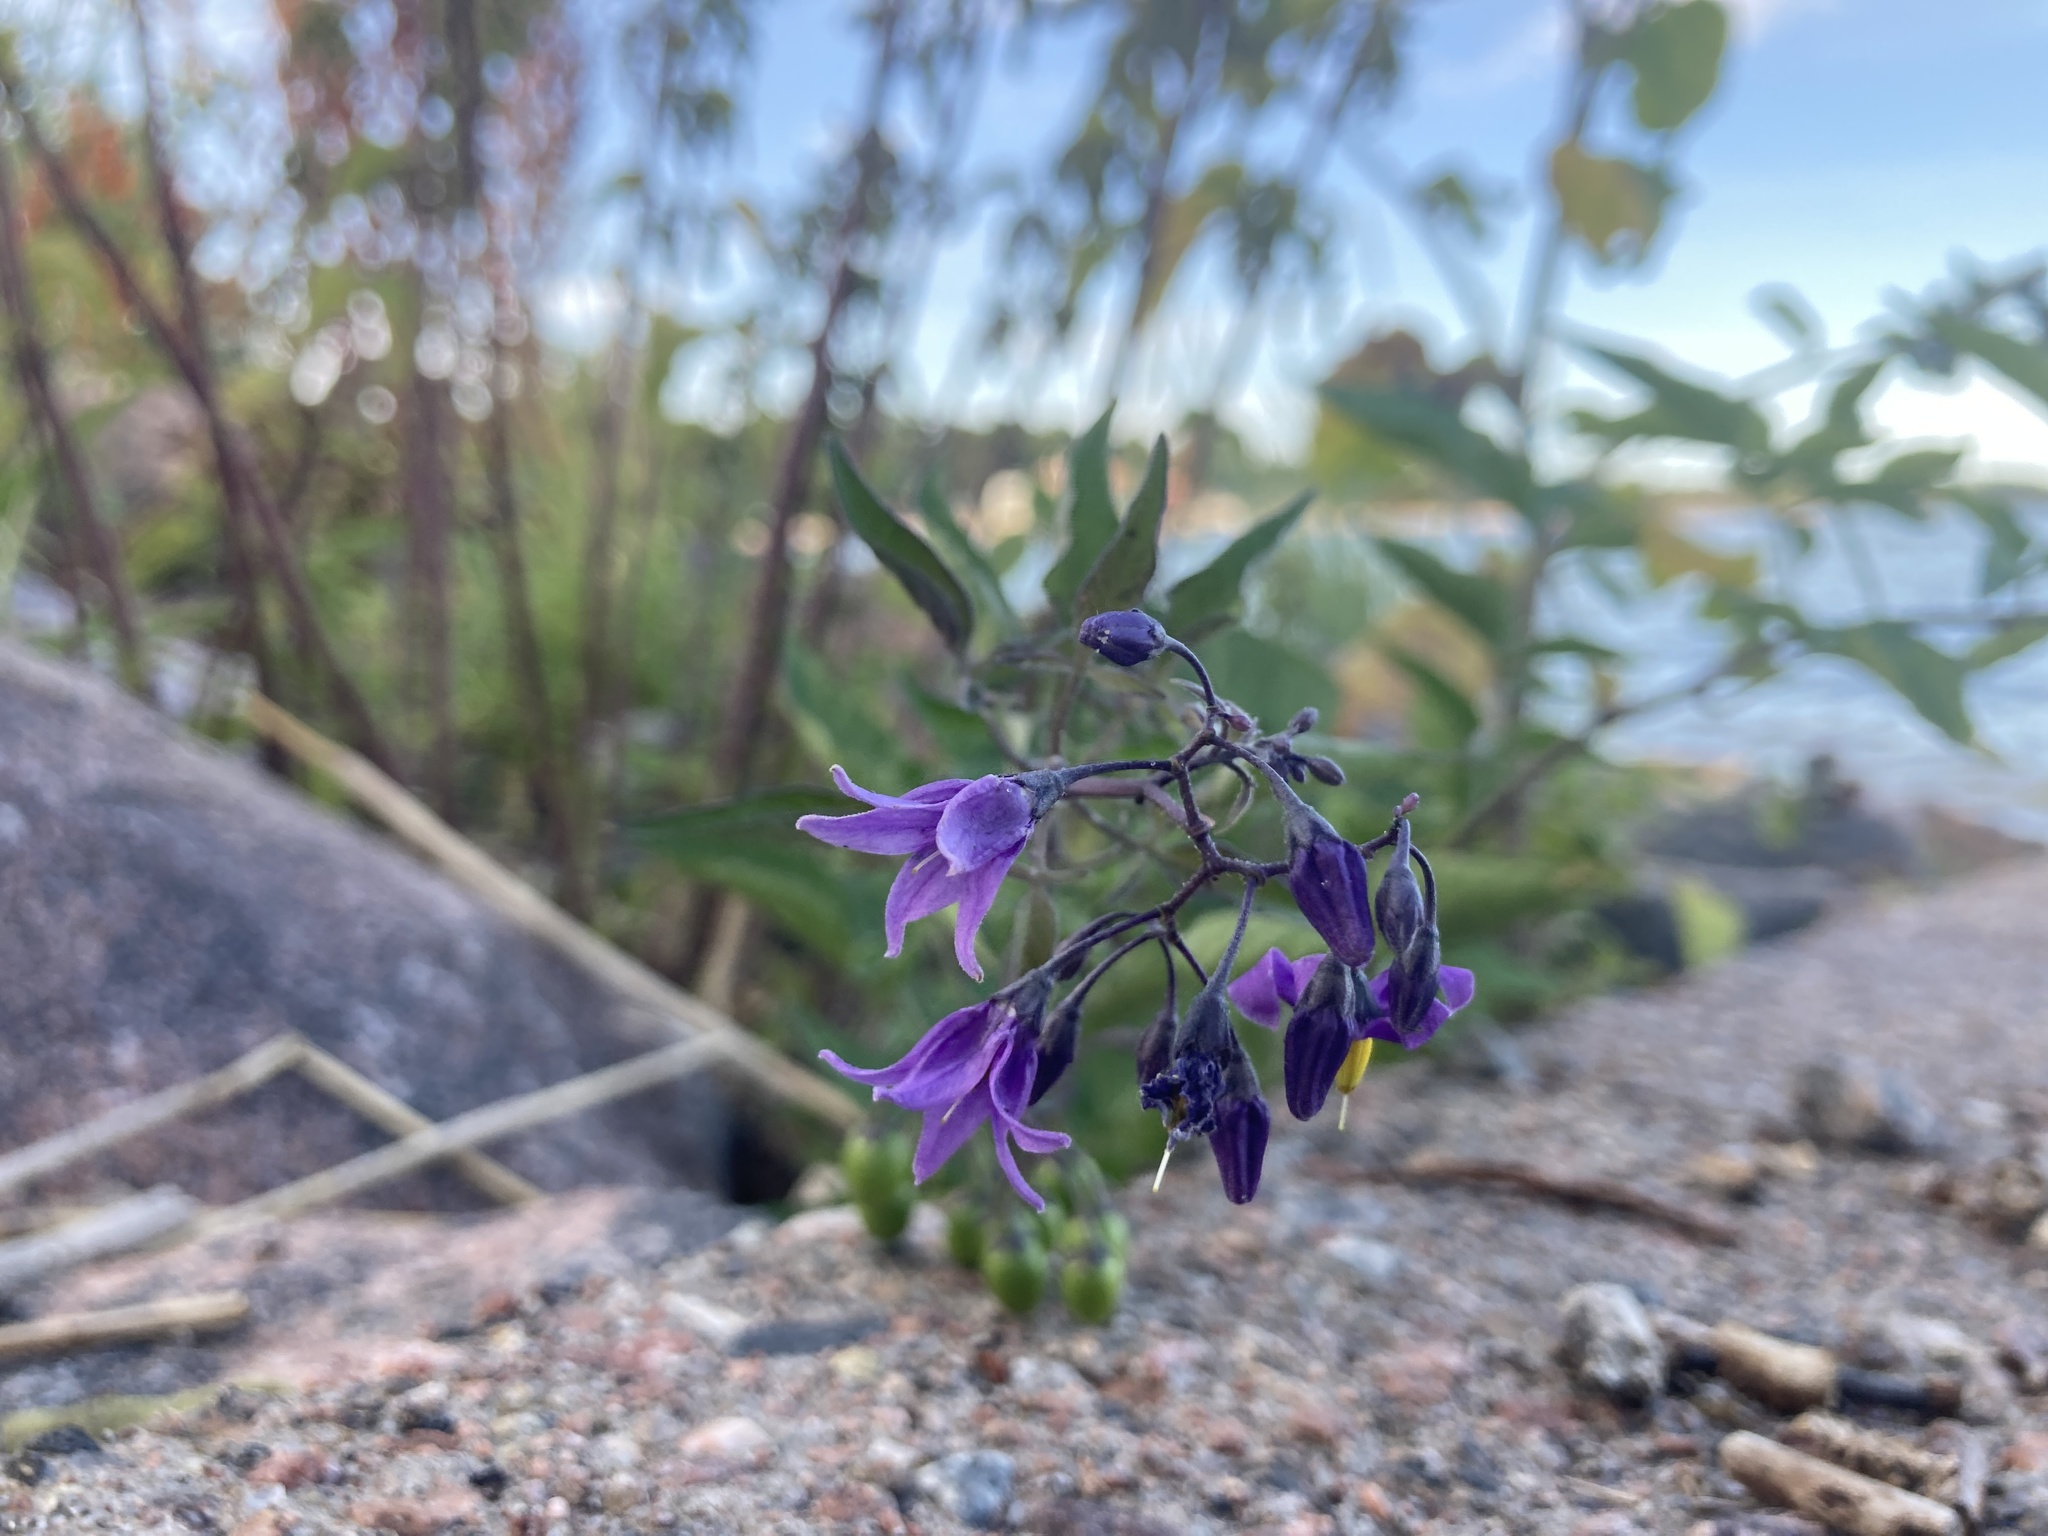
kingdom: Plantae
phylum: Tracheophyta
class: Magnoliopsida
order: Solanales
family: Solanaceae
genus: Solanum
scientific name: Solanum dulcamara
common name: Climbing nightshade
